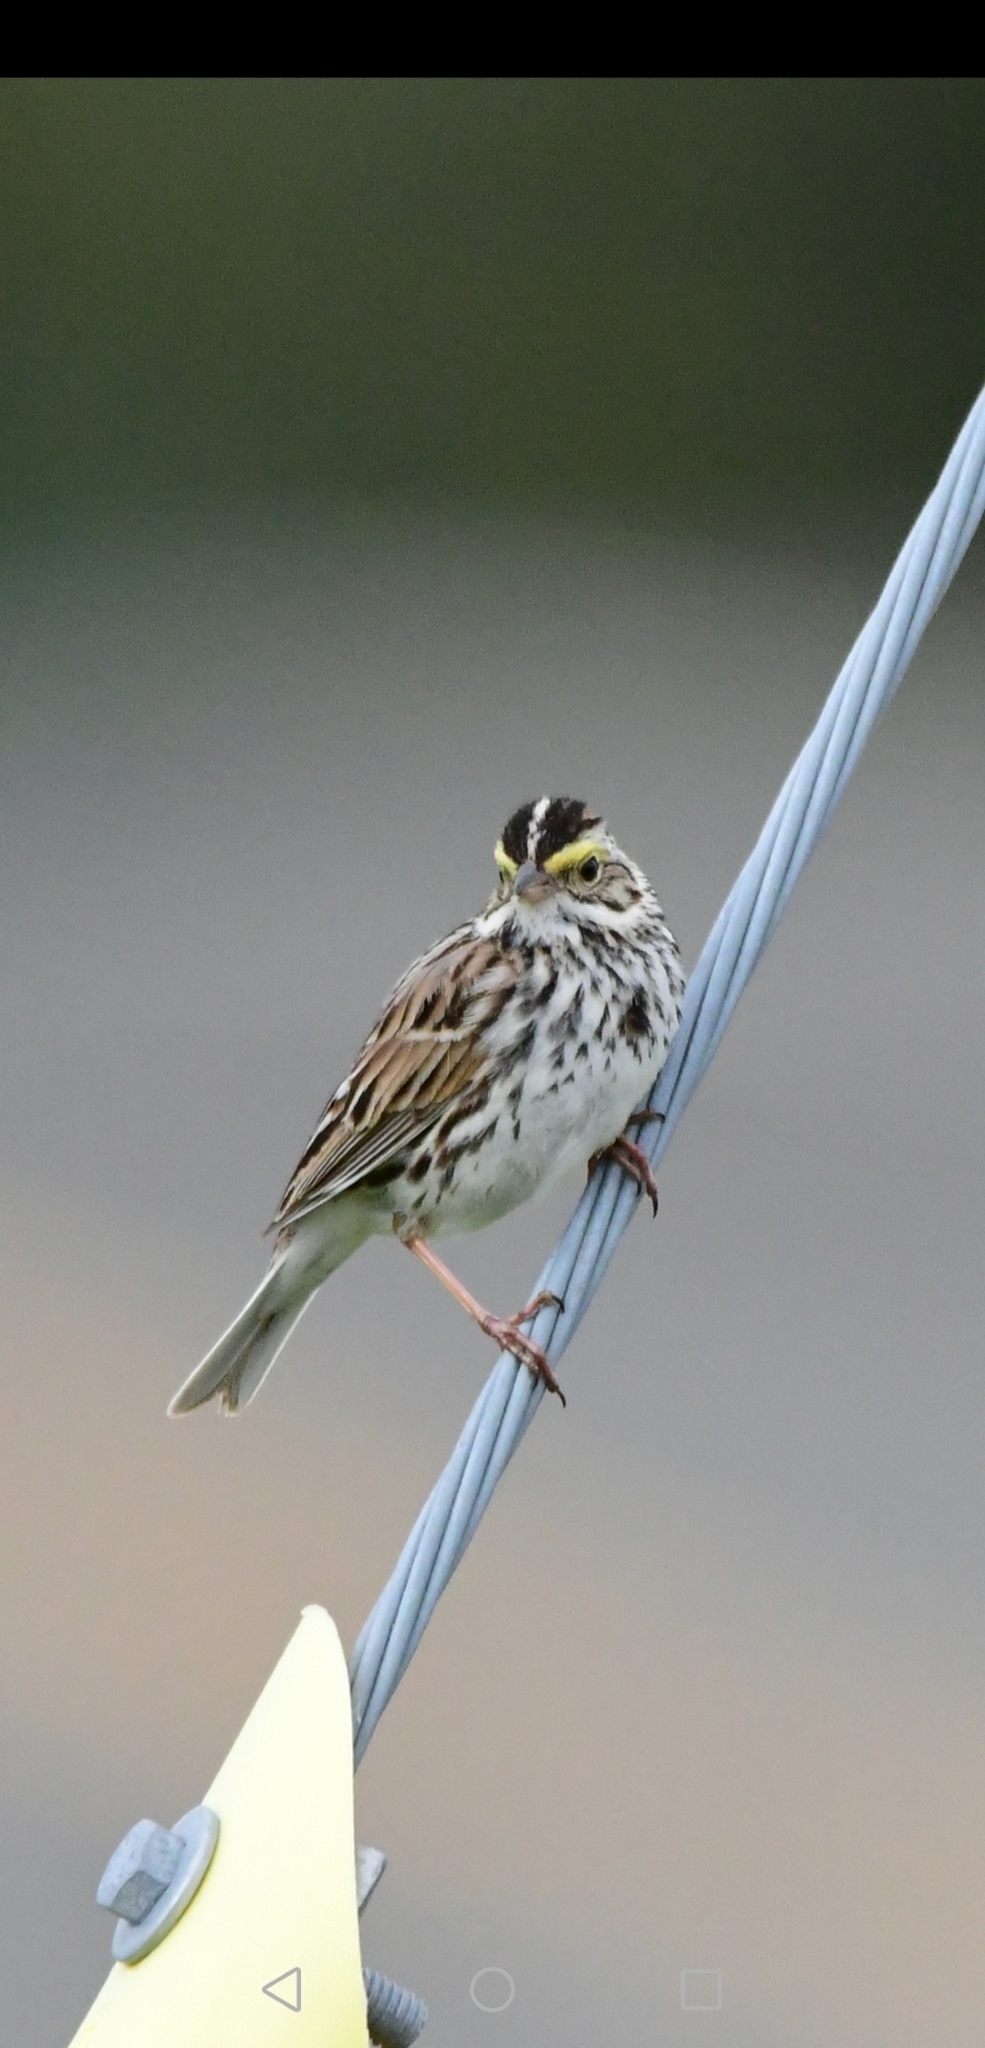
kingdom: Animalia
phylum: Chordata
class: Aves
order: Passeriformes
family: Passerellidae
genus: Passerculus
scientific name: Passerculus sandwichensis
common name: Savannah sparrow
